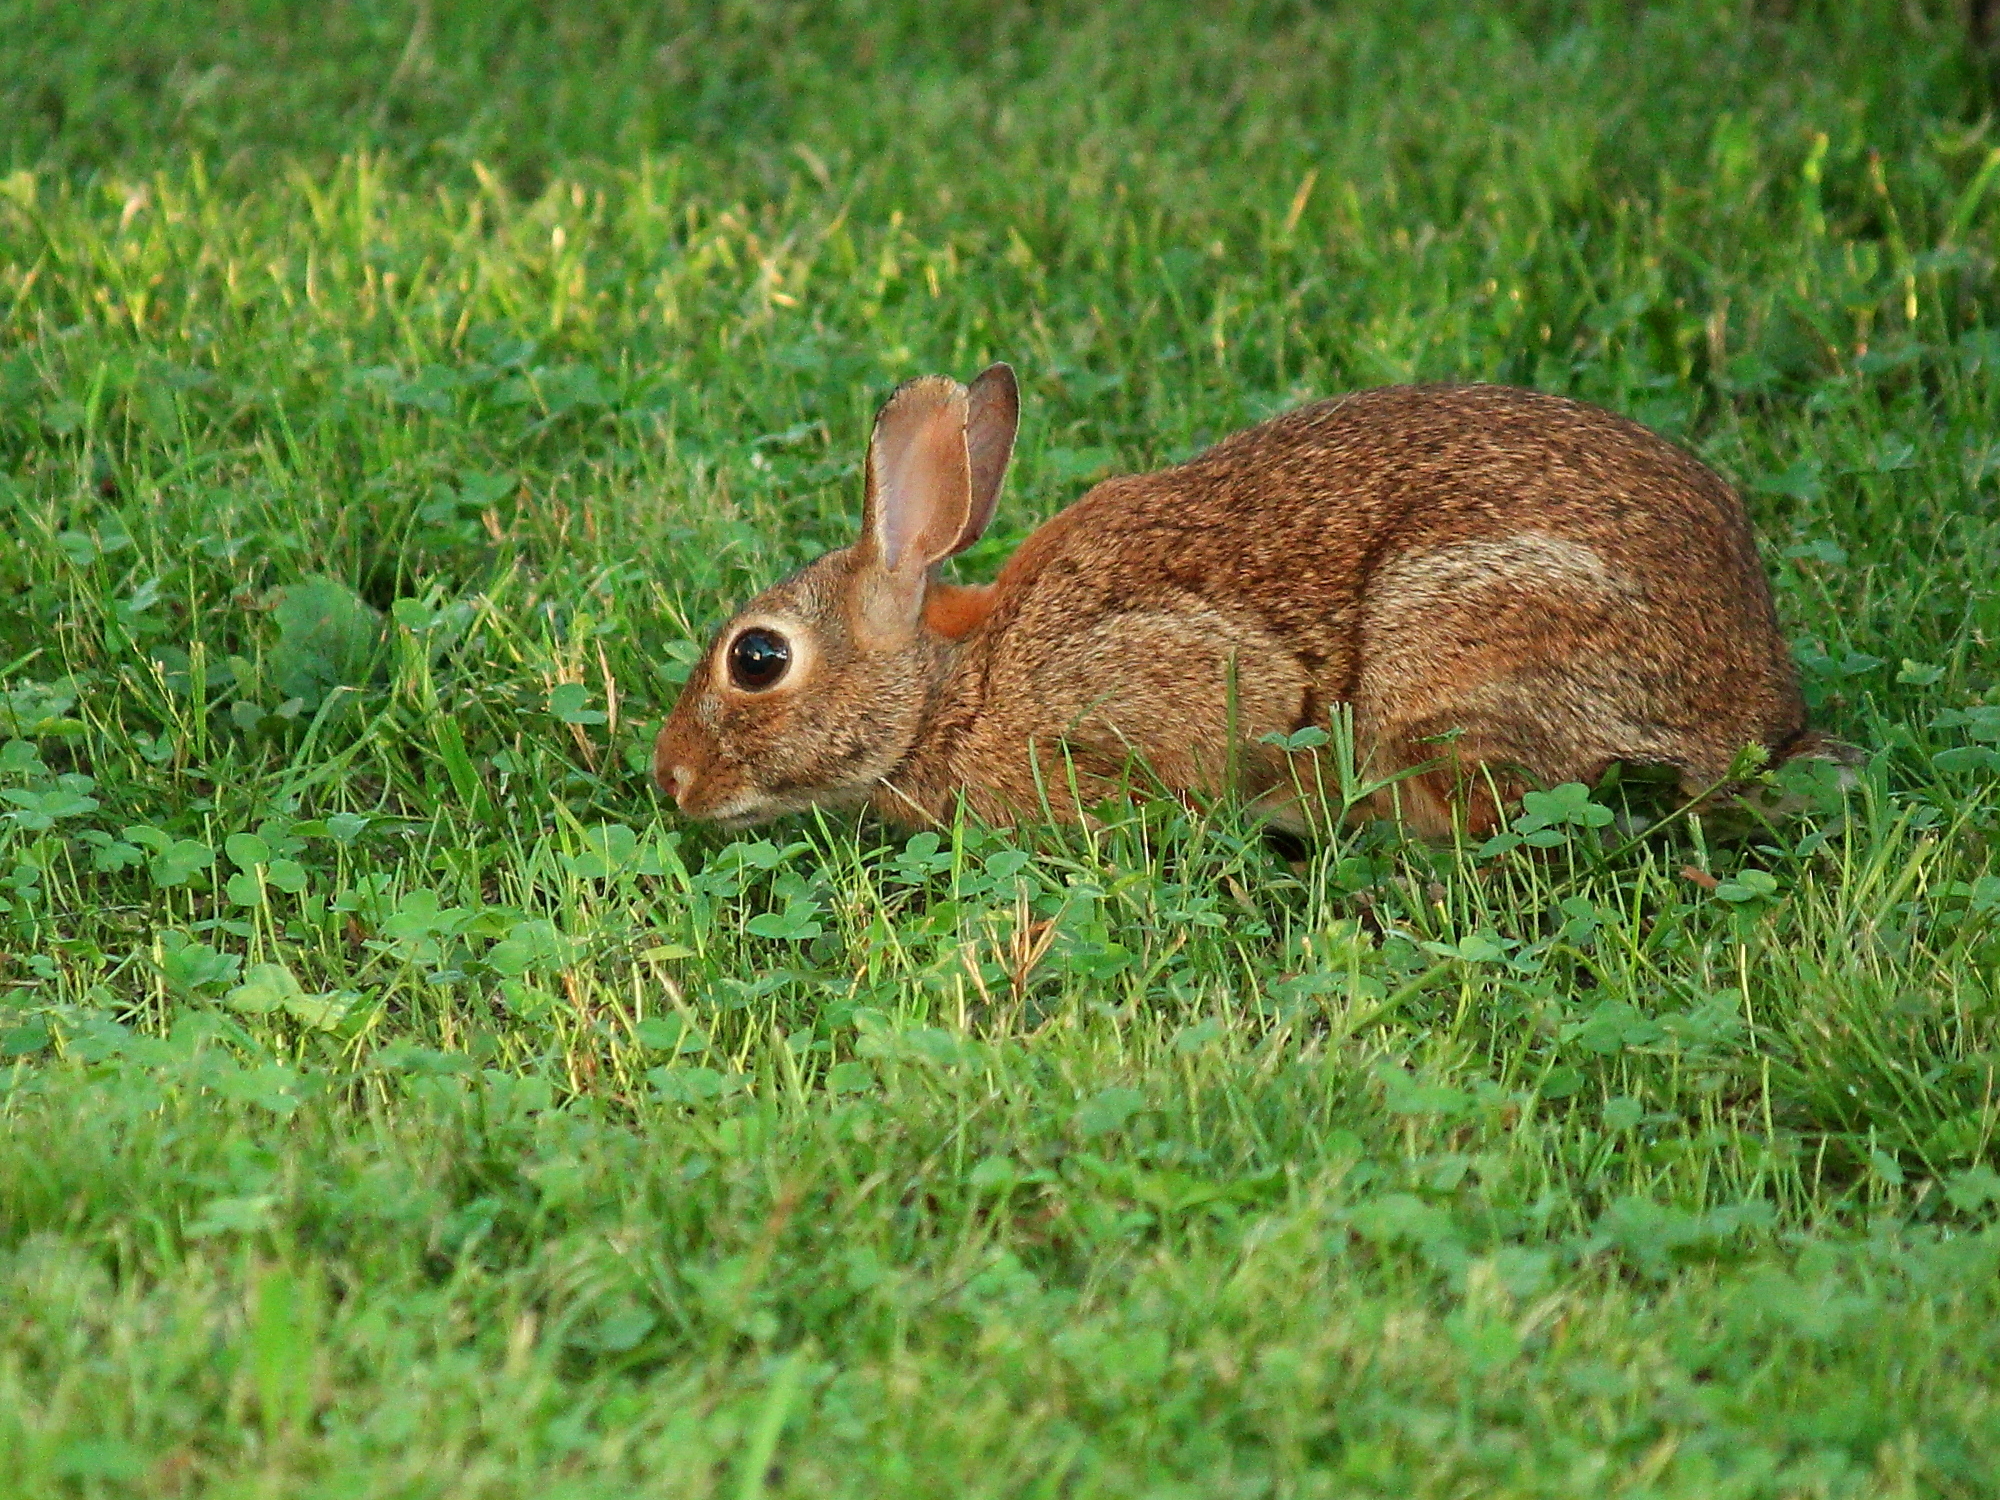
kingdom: Animalia
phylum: Chordata
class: Mammalia
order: Lagomorpha
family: Leporidae
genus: Sylvilagus
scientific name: Sylvilagus floridanus
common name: Eastern cottontail
